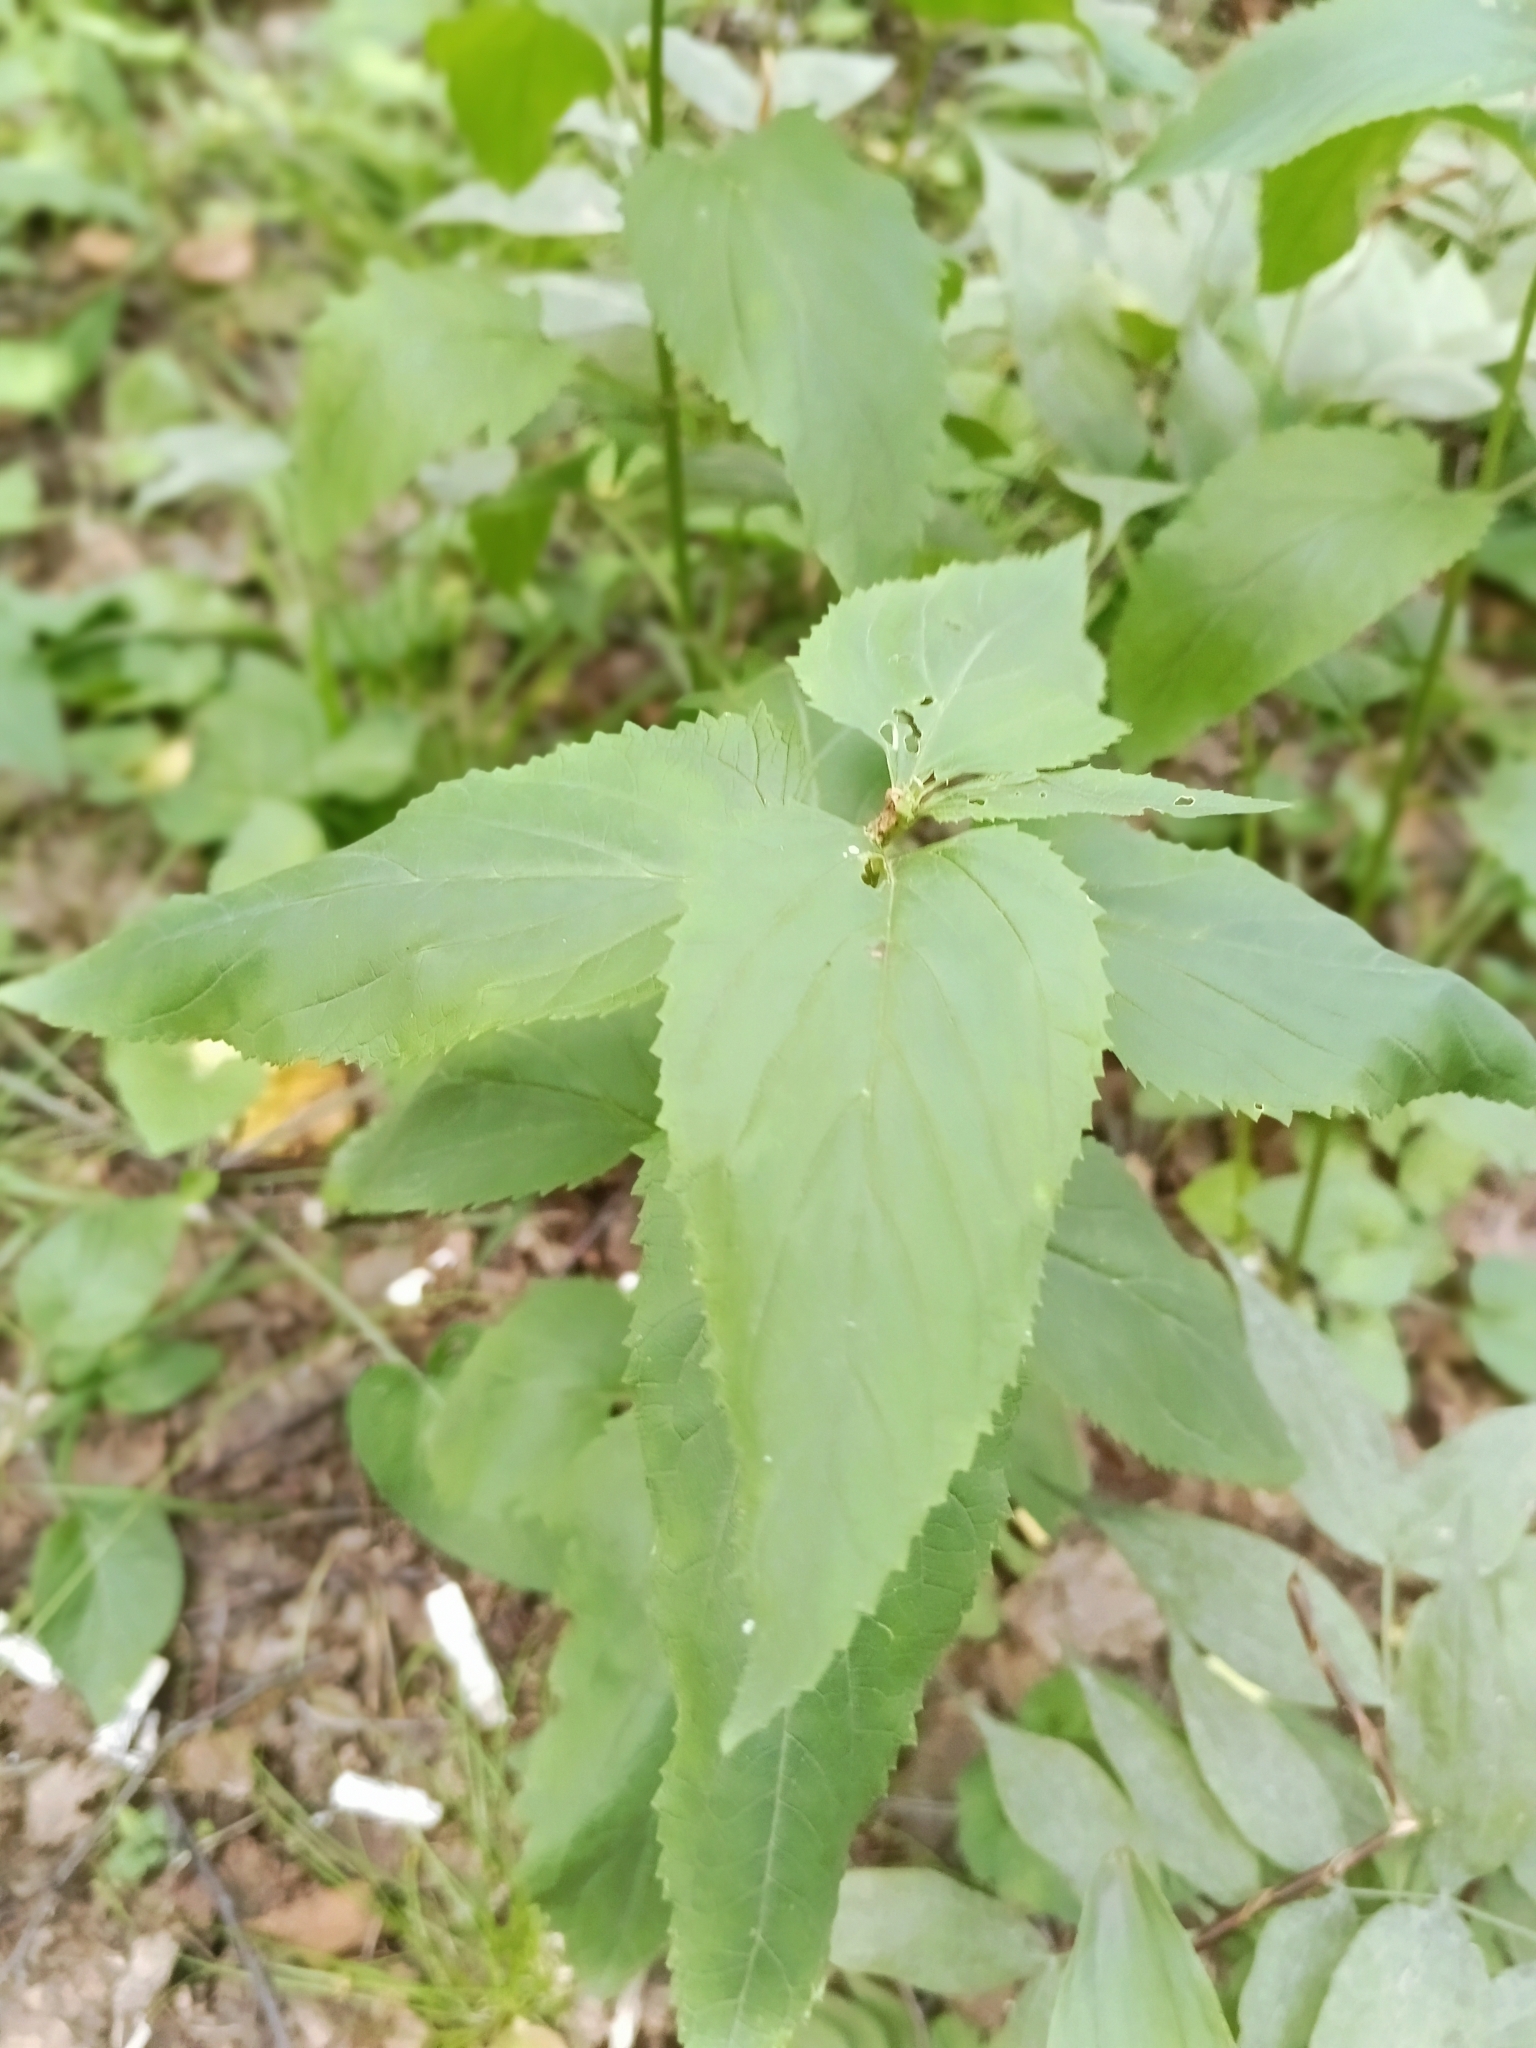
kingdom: Plantae
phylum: Tracheophyta
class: Magnoliopsida
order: Lamiales
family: Scrophulariaceae
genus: Scrophularia
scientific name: Scrophularia nodosa
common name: Common figwort
